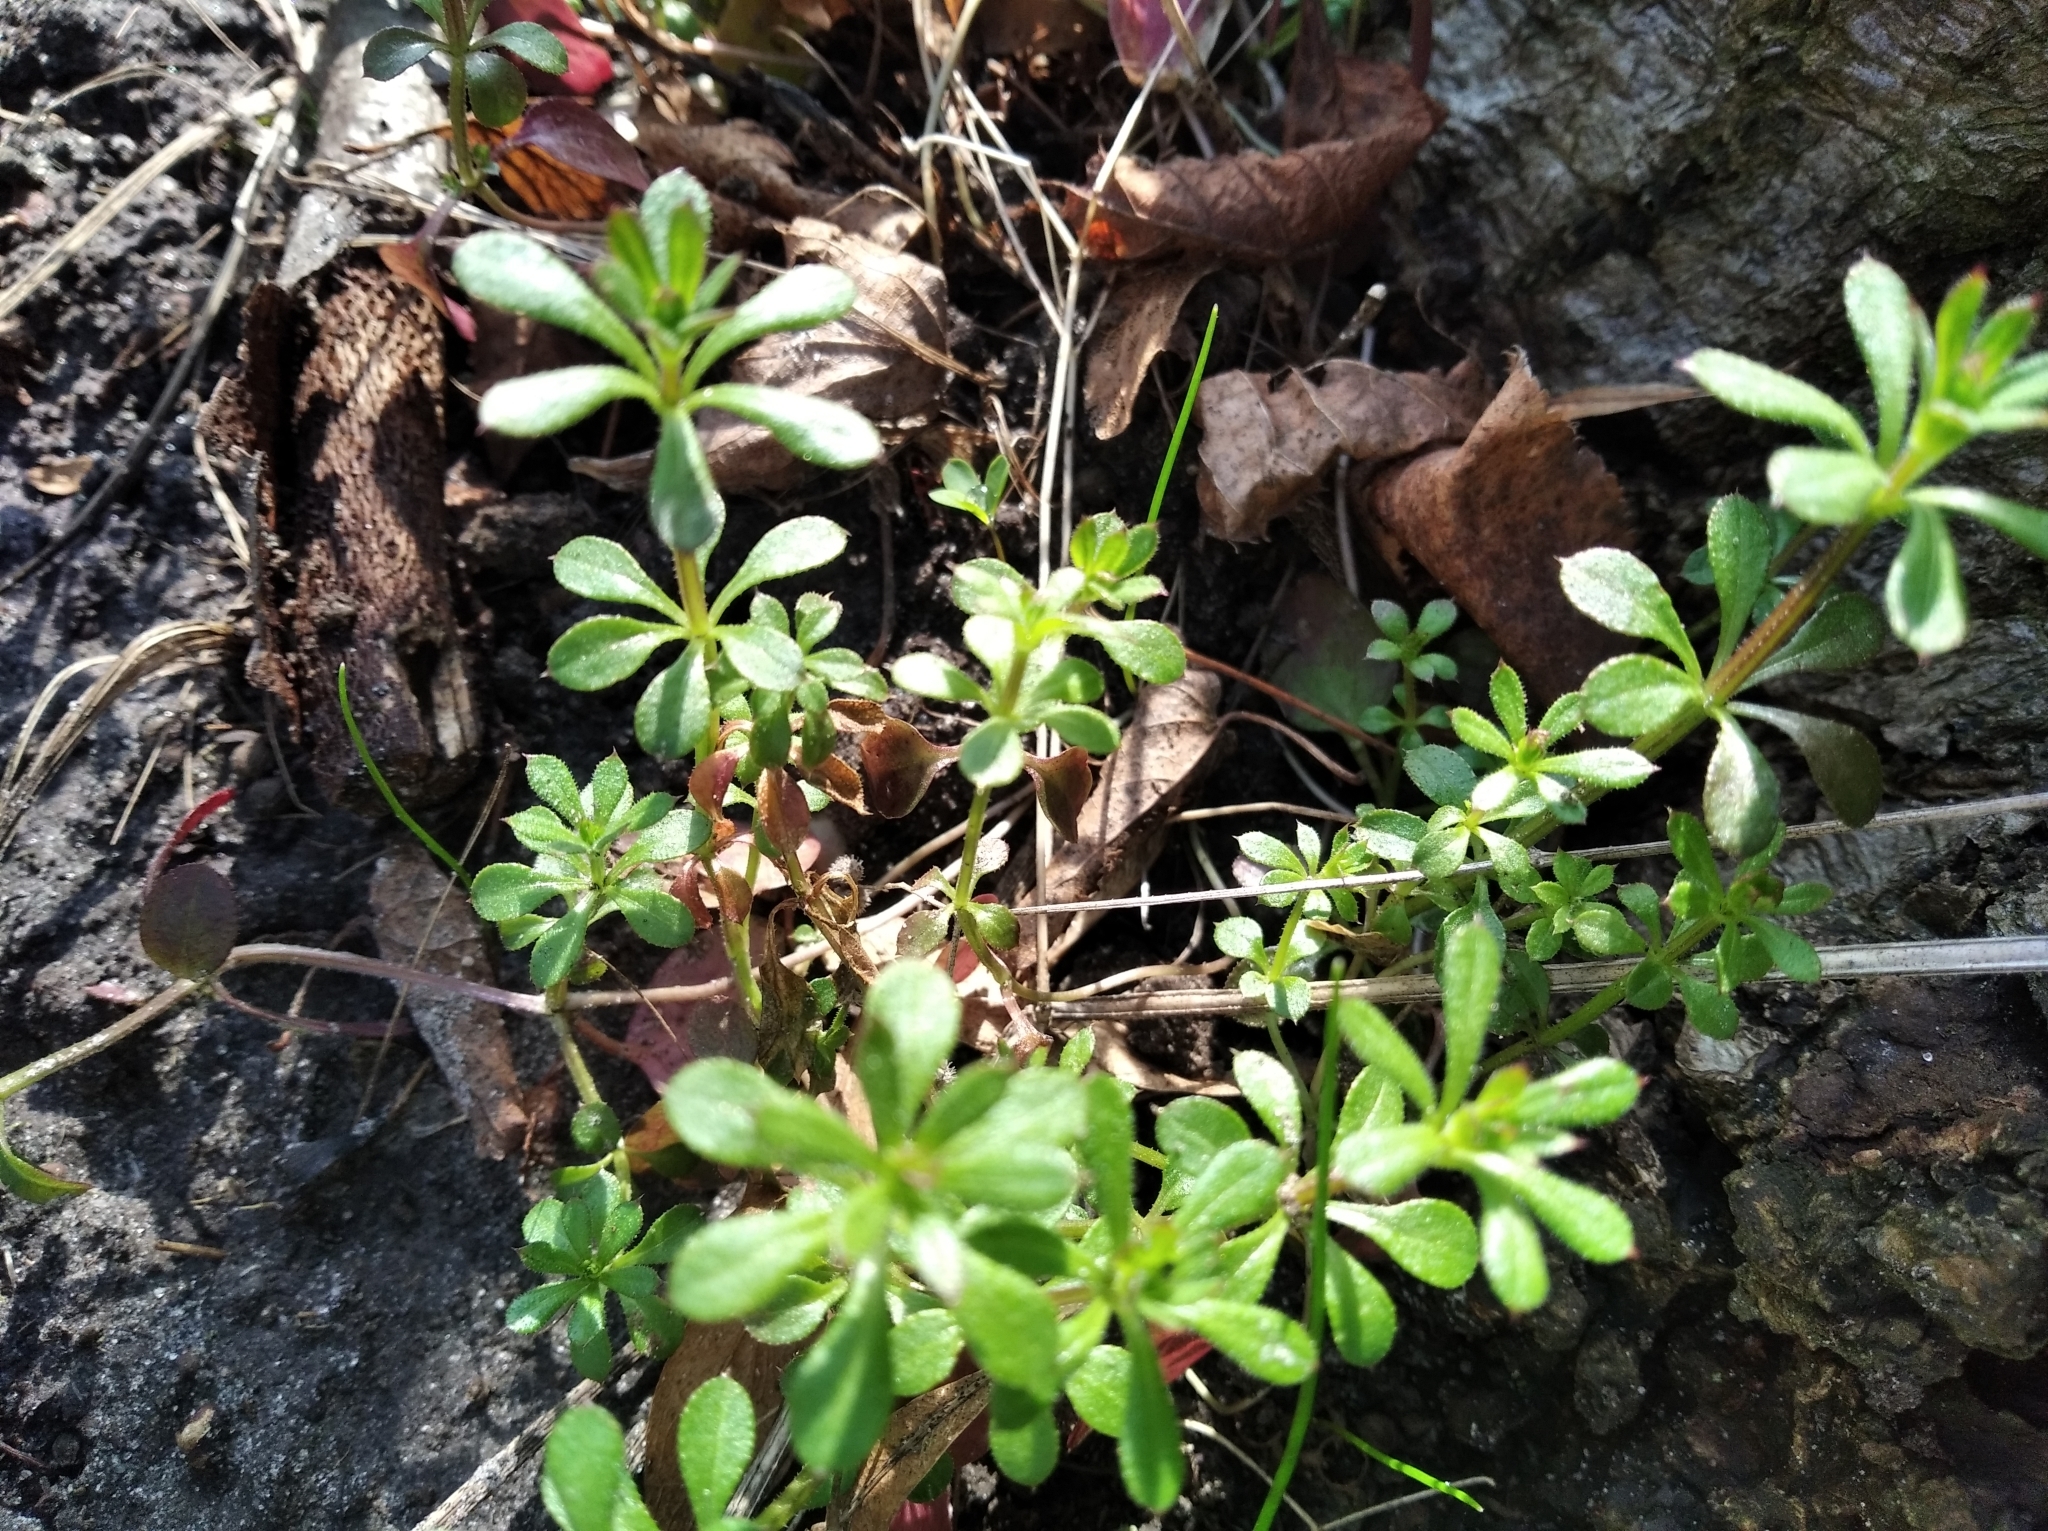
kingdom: Plantae
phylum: Tracheophyta
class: Magnoliopsida
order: Gentianales
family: Rubiaceae
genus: Galium
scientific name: Galium aparine
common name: Cleavers
